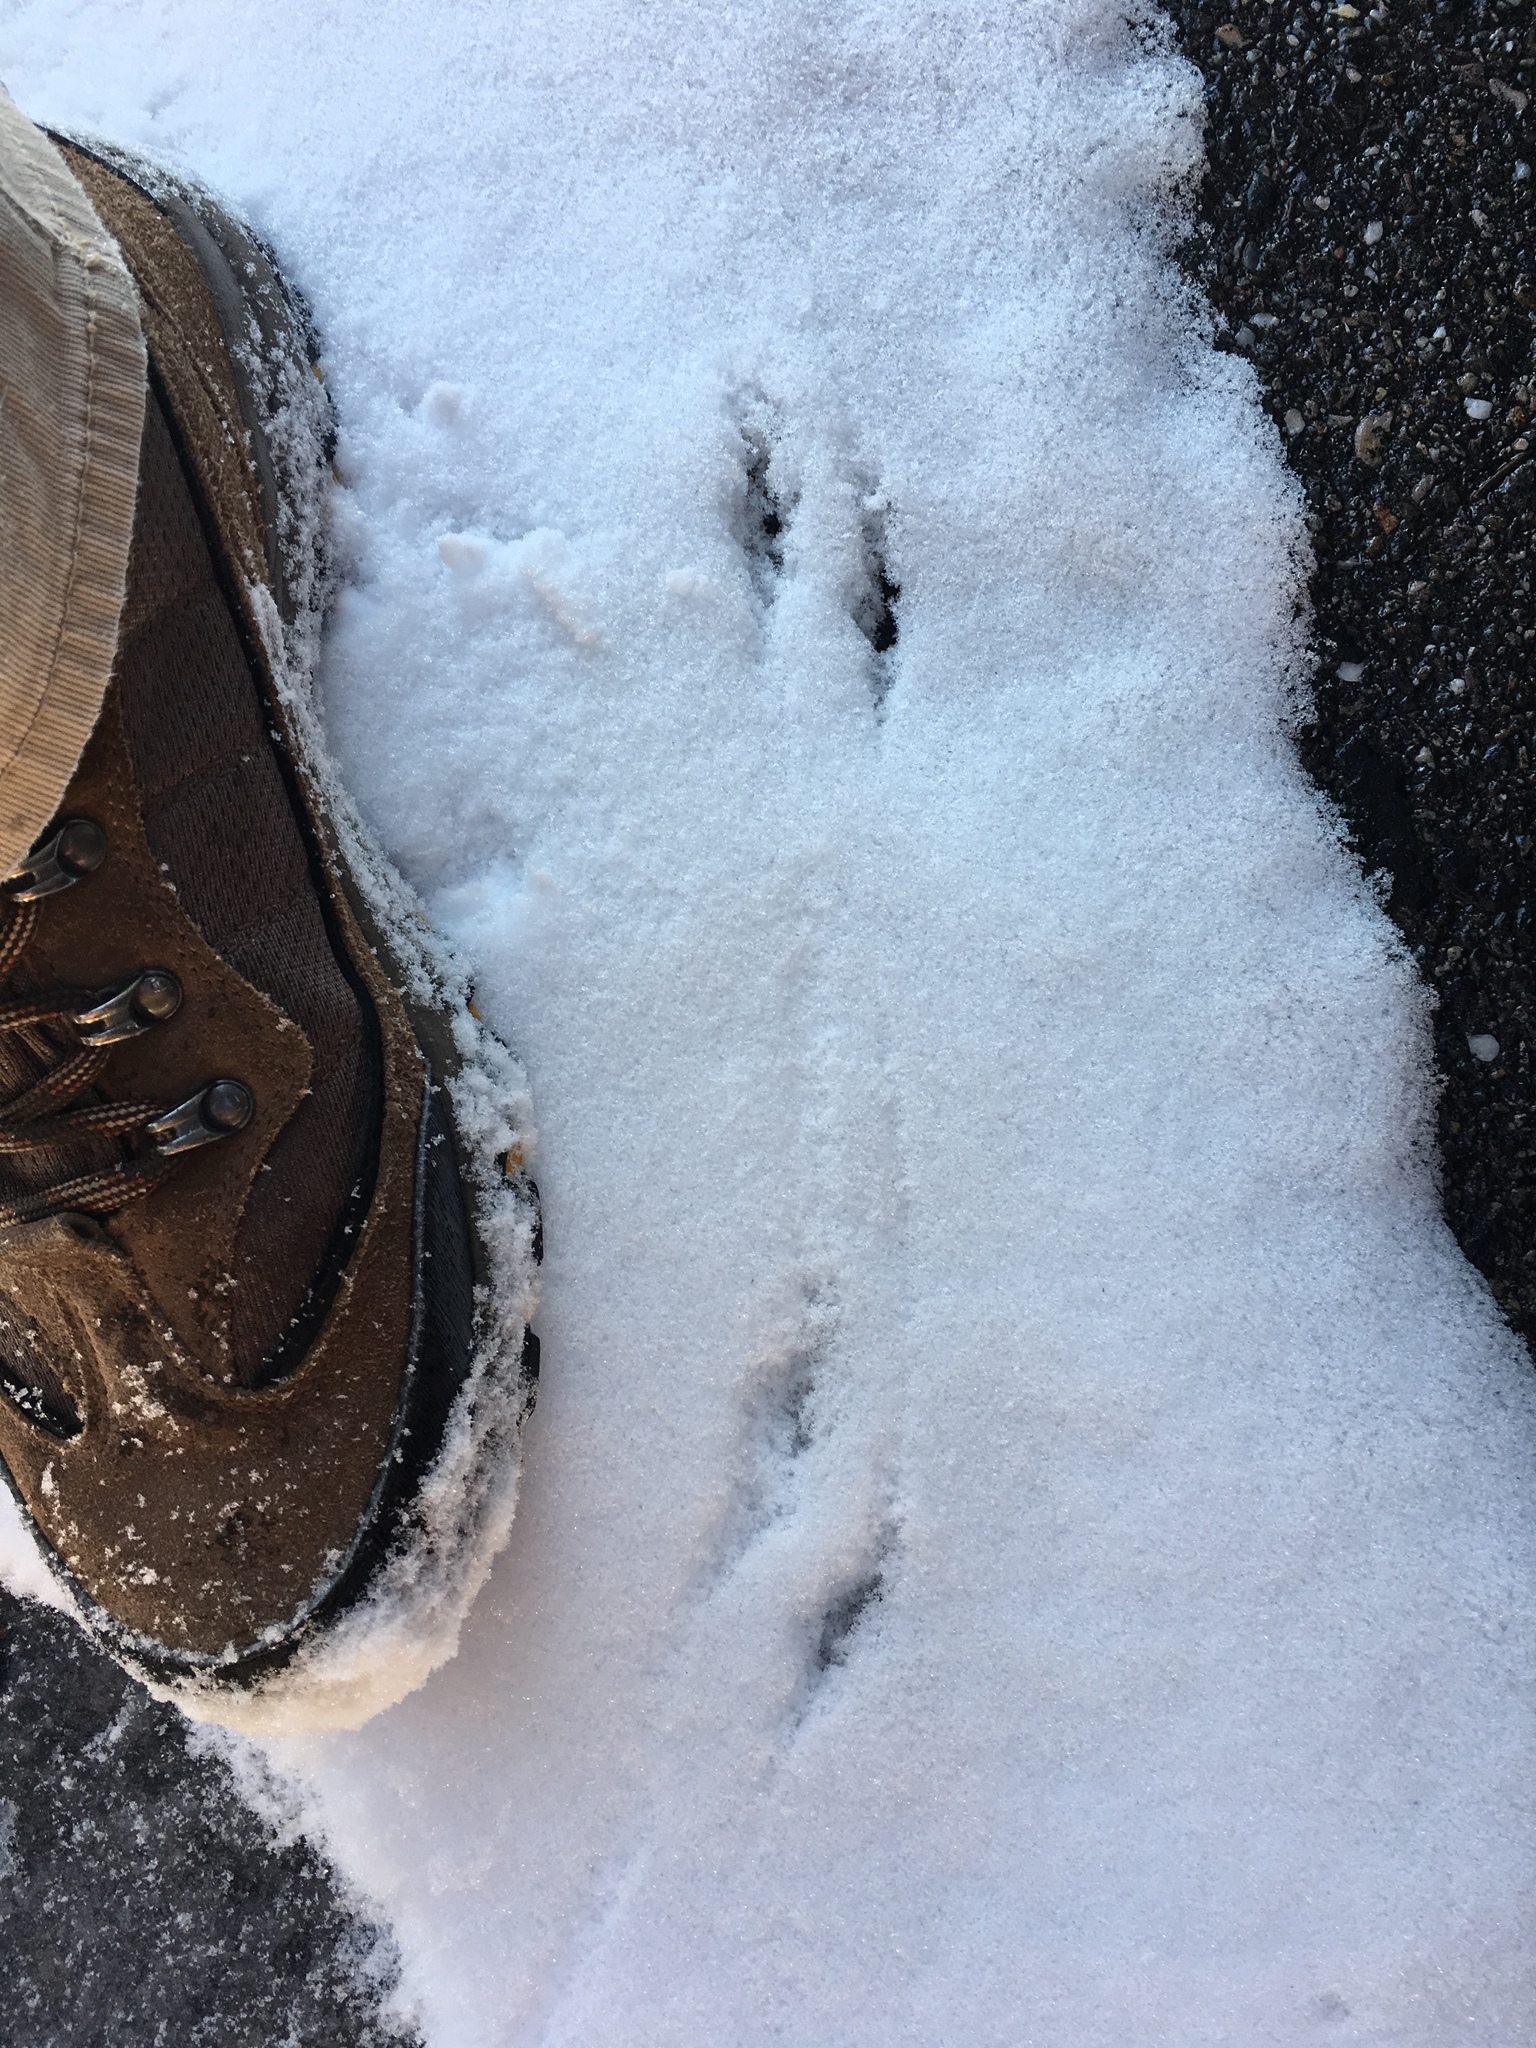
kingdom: Animalia
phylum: Chordata
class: Mammalia
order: Rodentia
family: Cricetidae
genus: Peromyscus
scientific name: Peromyscus
